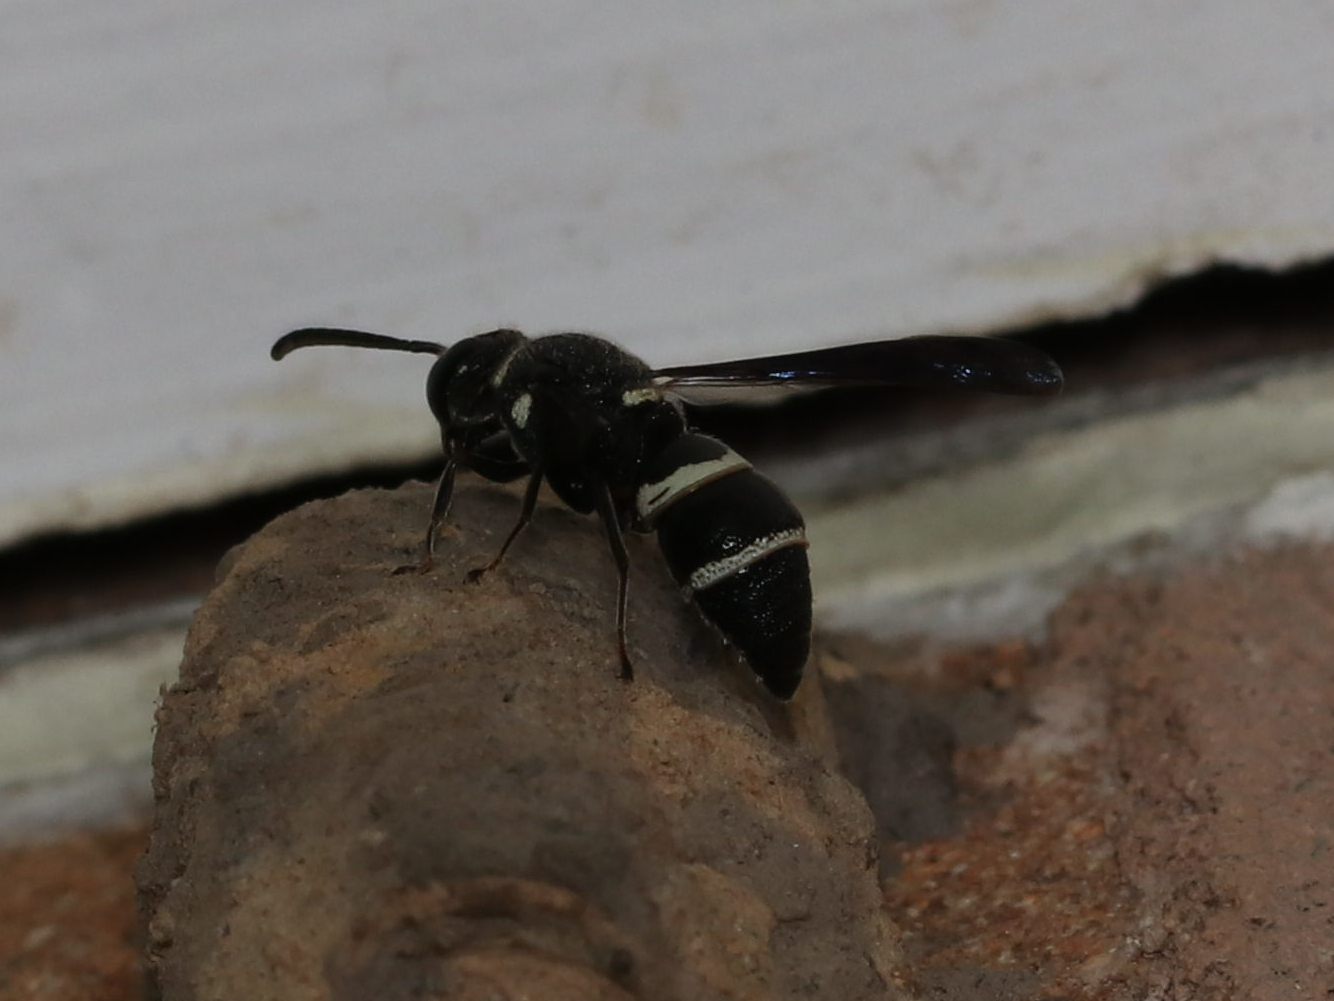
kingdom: Animalia
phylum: Arthropoda
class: Insecta
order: Hymenoptera
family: Eumenidae
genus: Euodynerus
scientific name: Euodynerus megaera
